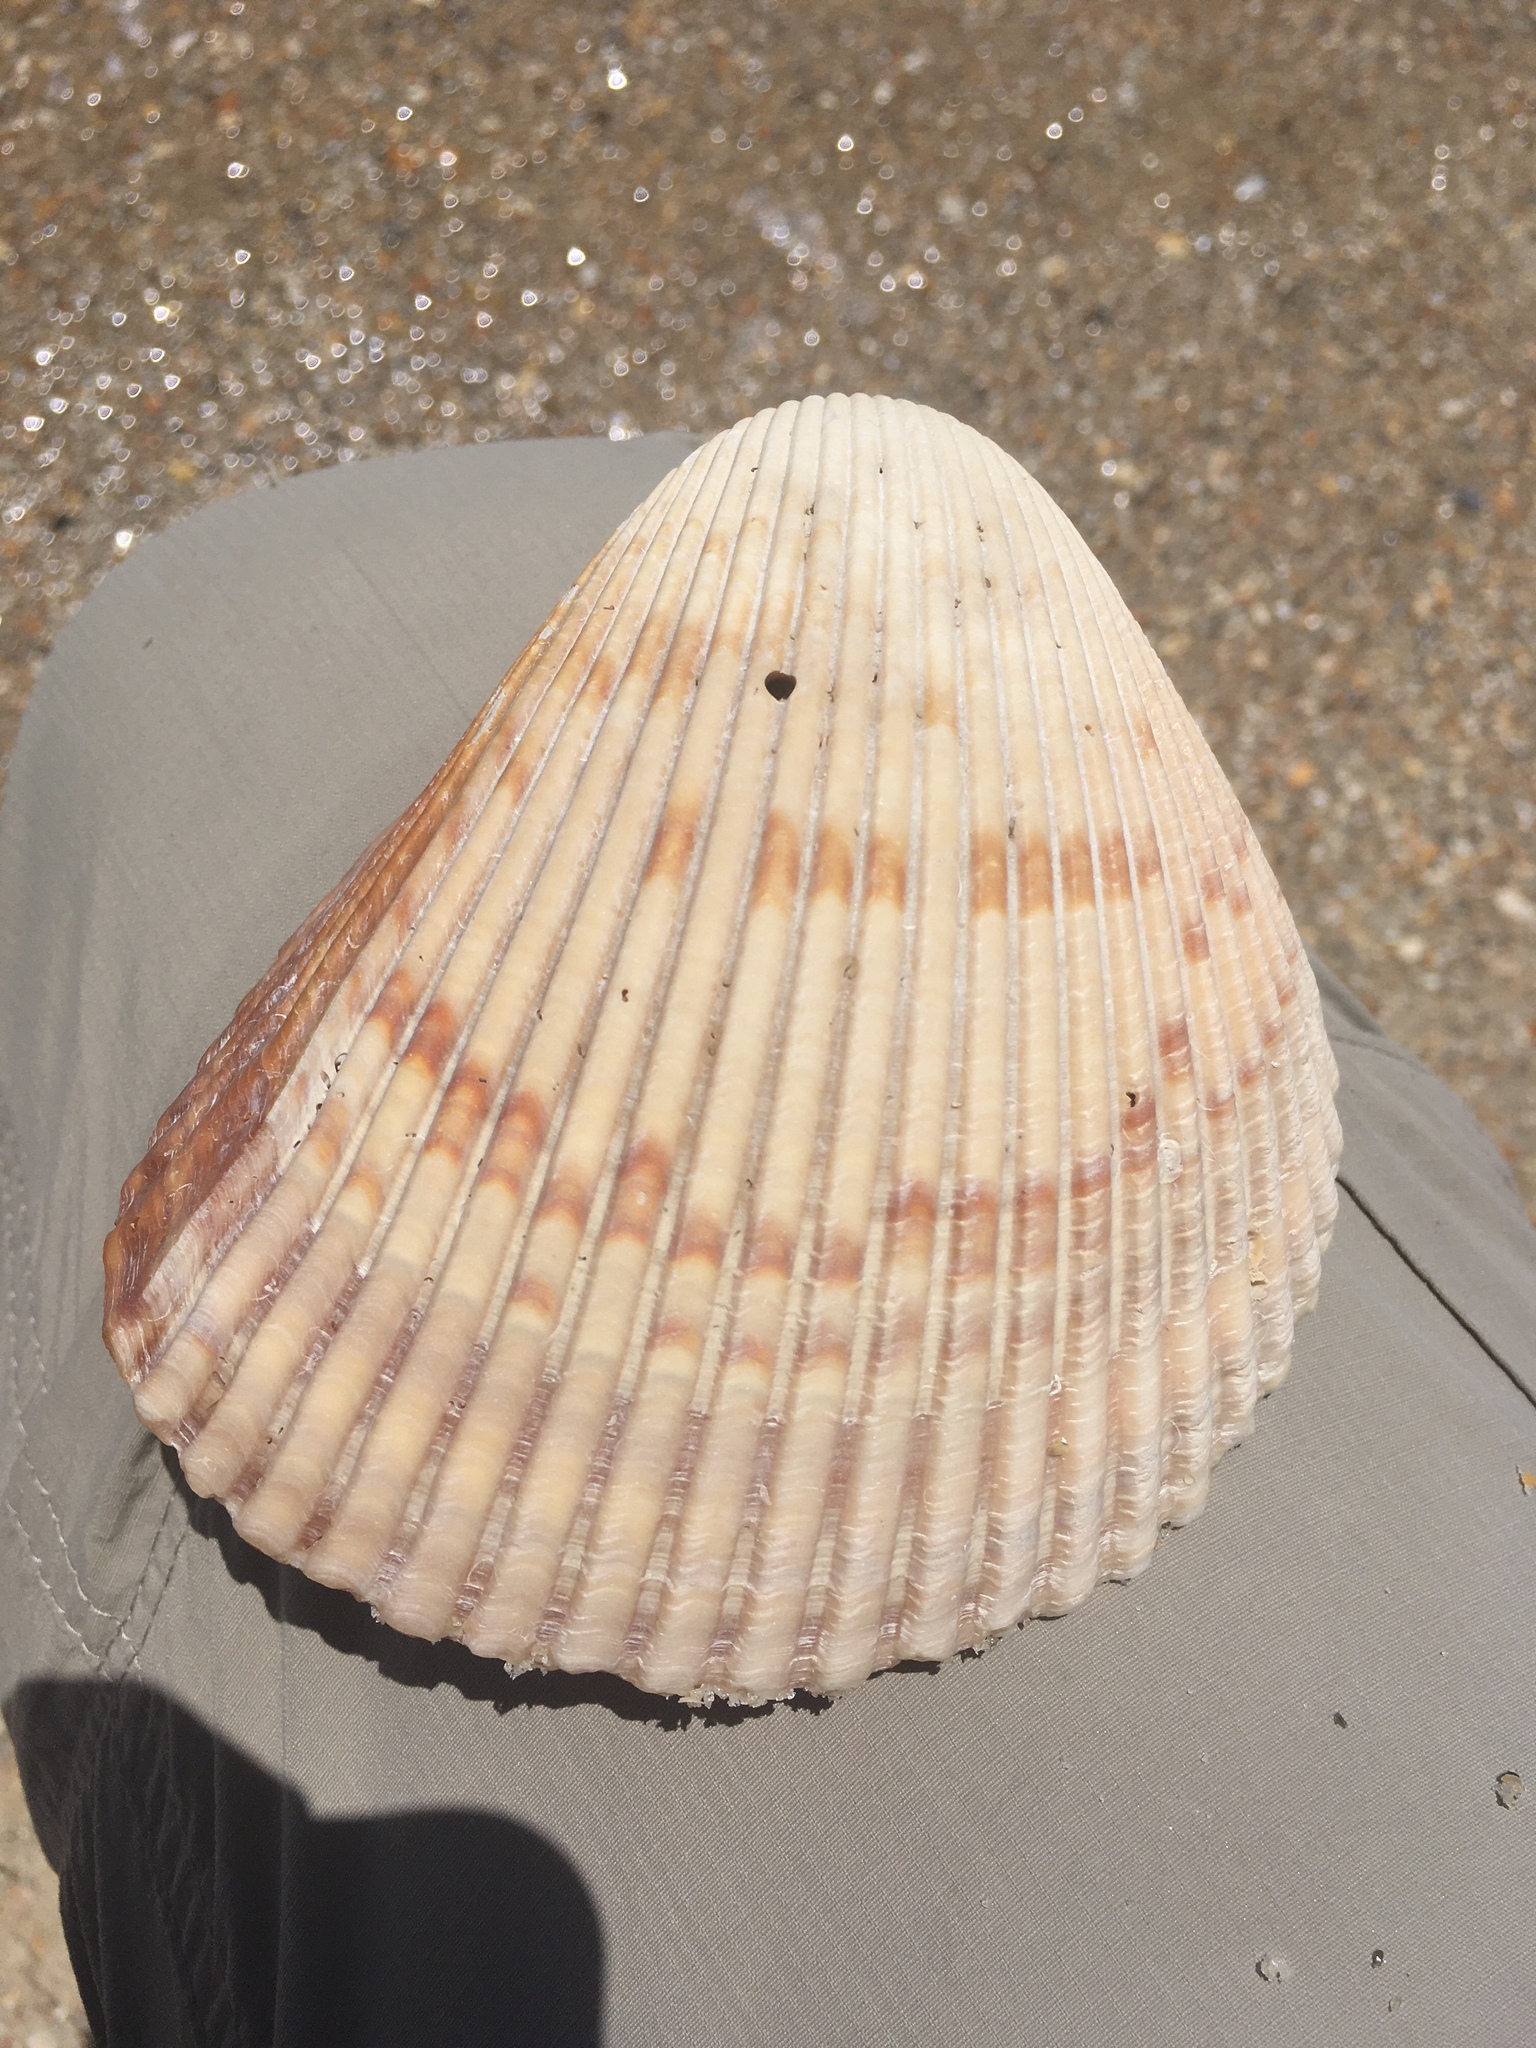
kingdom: Animalia
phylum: Mollusca
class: Bivalvia
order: Cardiida
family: Cardiidae
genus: Dinocardium
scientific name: Dinocardium robustum
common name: Atlantic giant cockle
